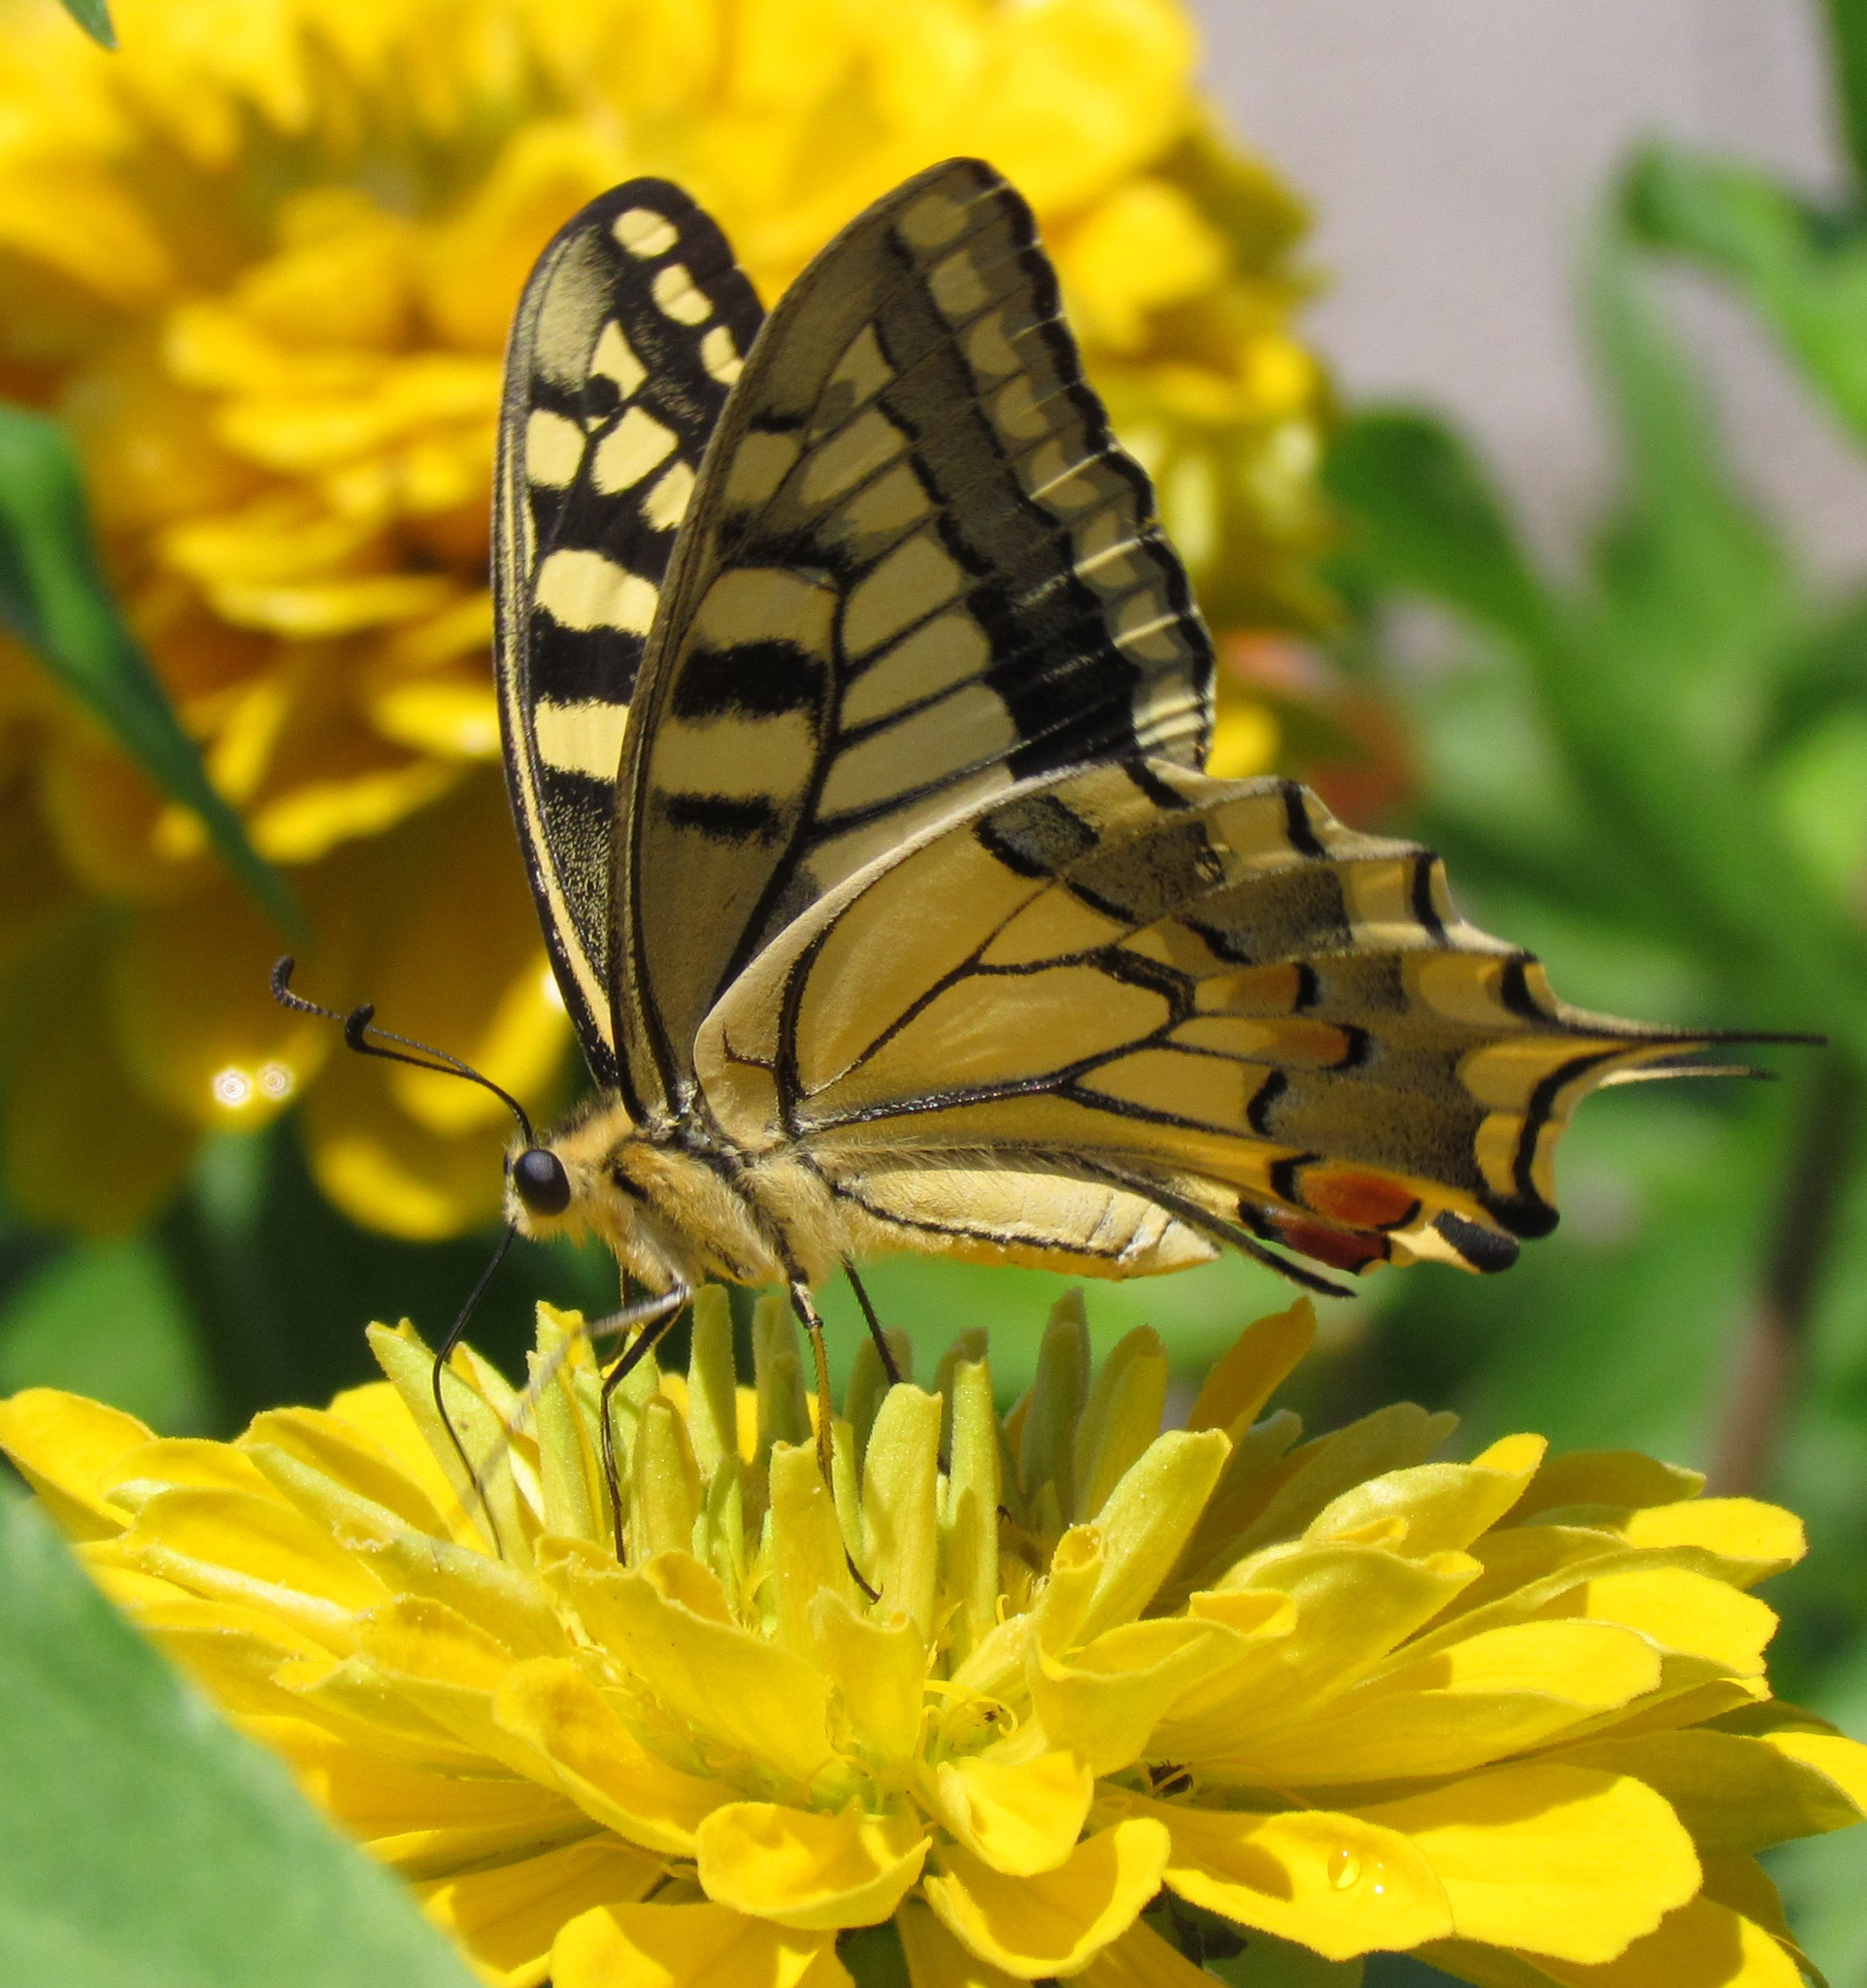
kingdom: Animalia
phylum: Arthropoda
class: Insecta
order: Lepidoptera
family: Papilionidae
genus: Papilio
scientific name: Papilio machaon
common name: Swallowtail
